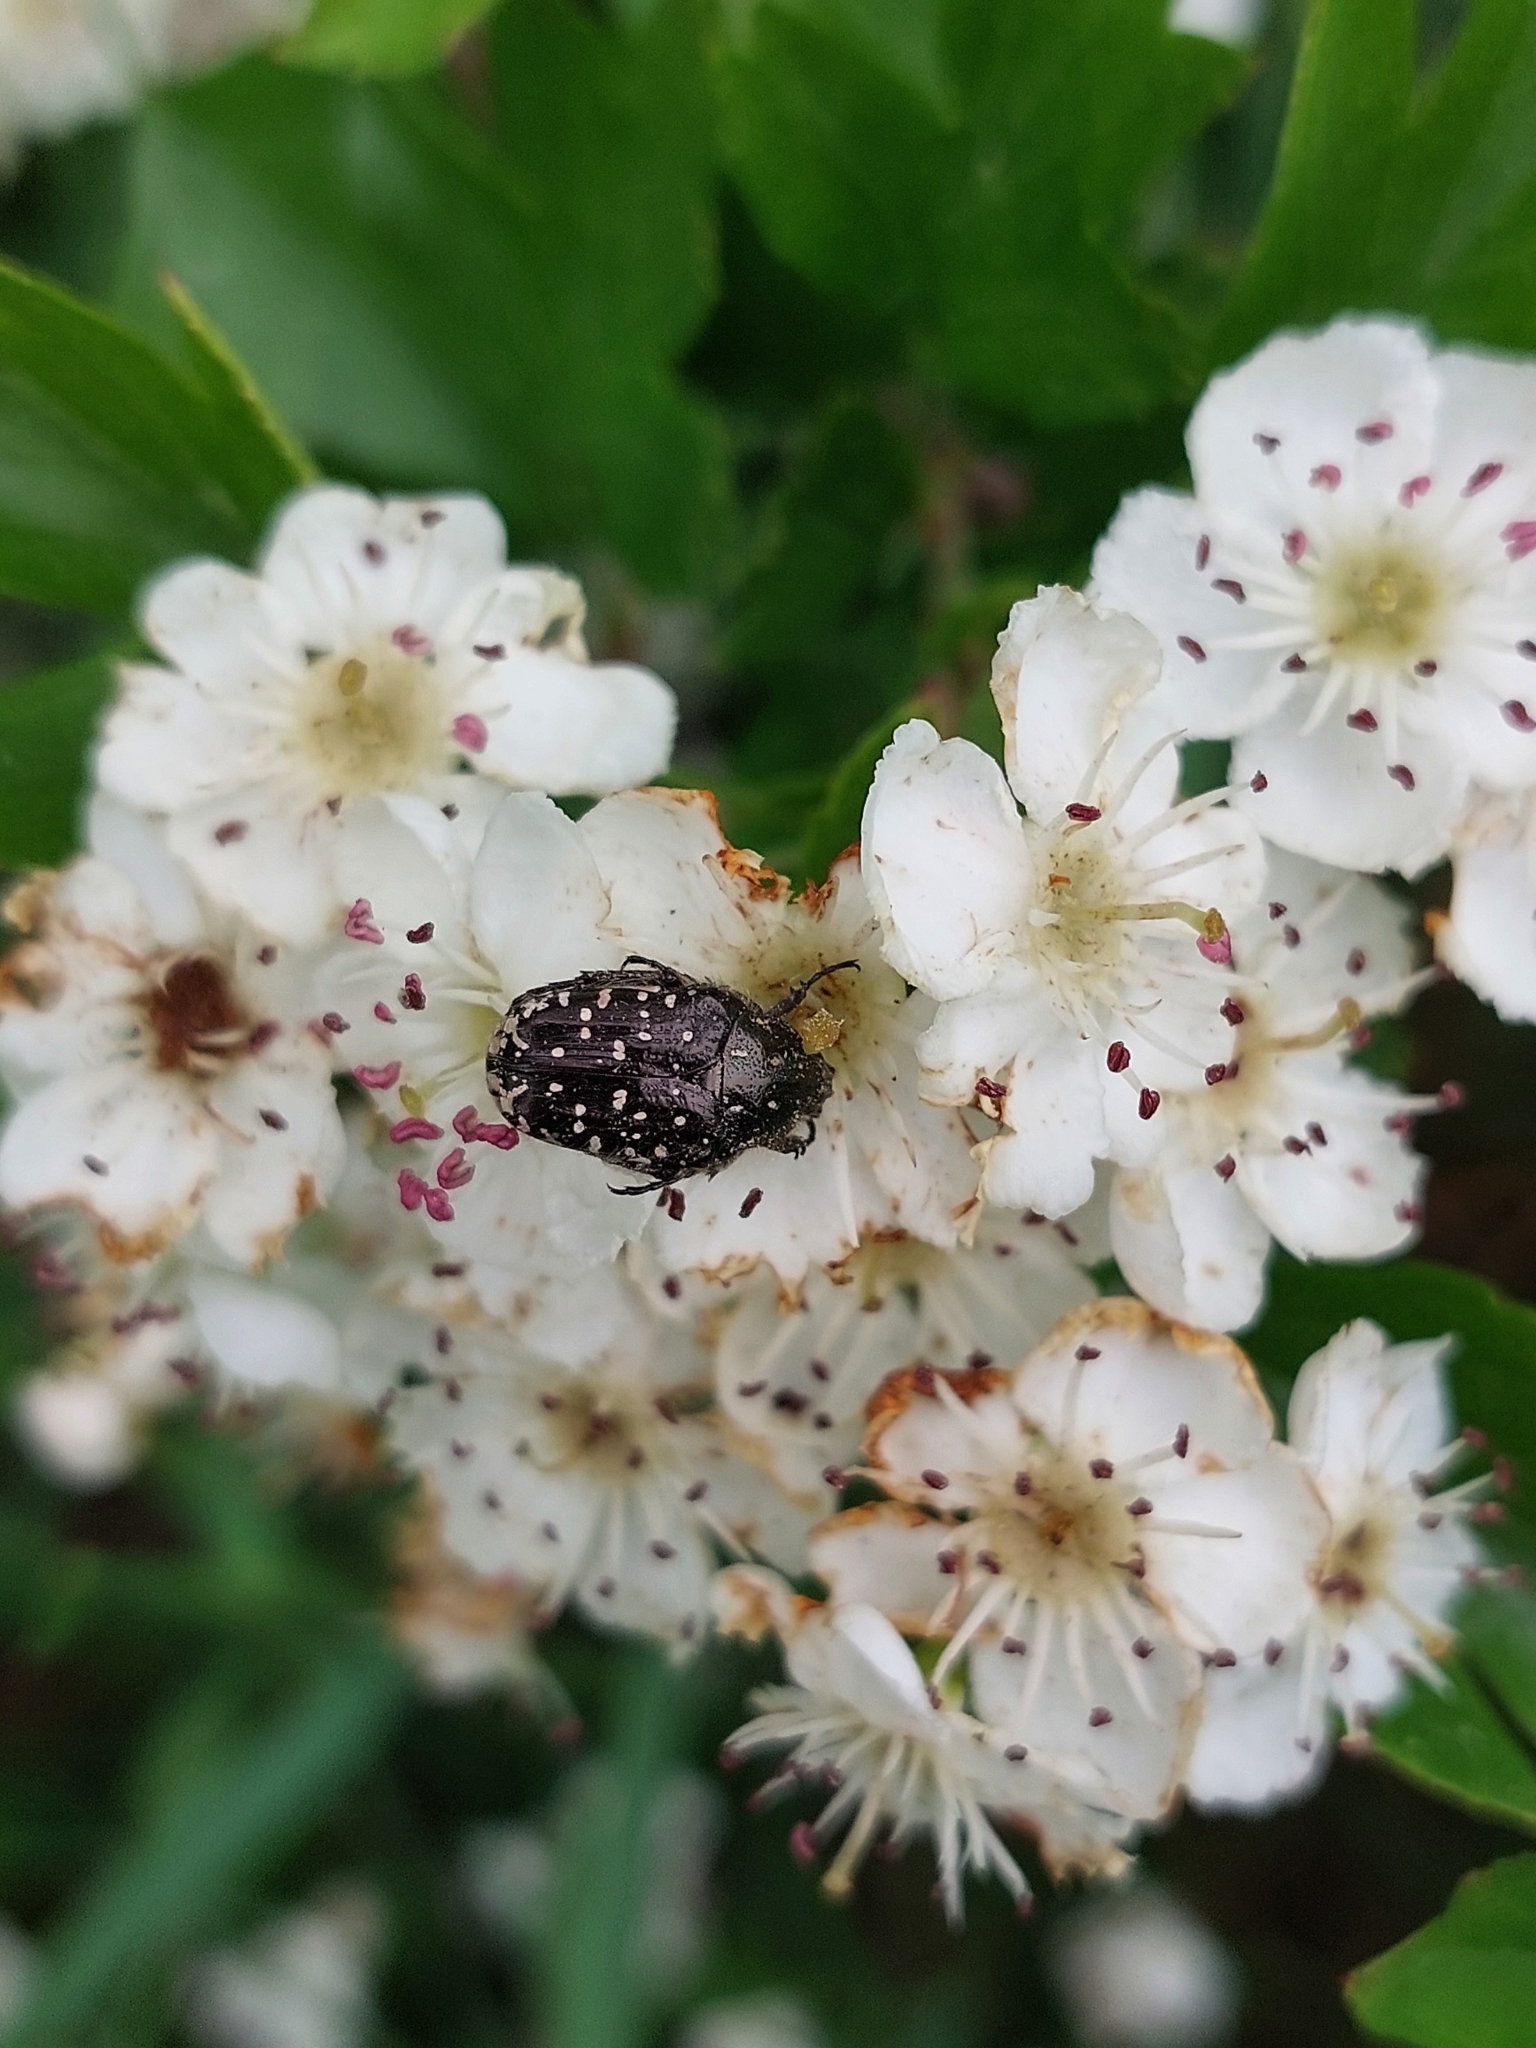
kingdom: Animalia
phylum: Arthropoda
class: Insecta
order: Coleoptera
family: Scarabaeidae
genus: Oxythyrea
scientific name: Oxythyrea funesta
